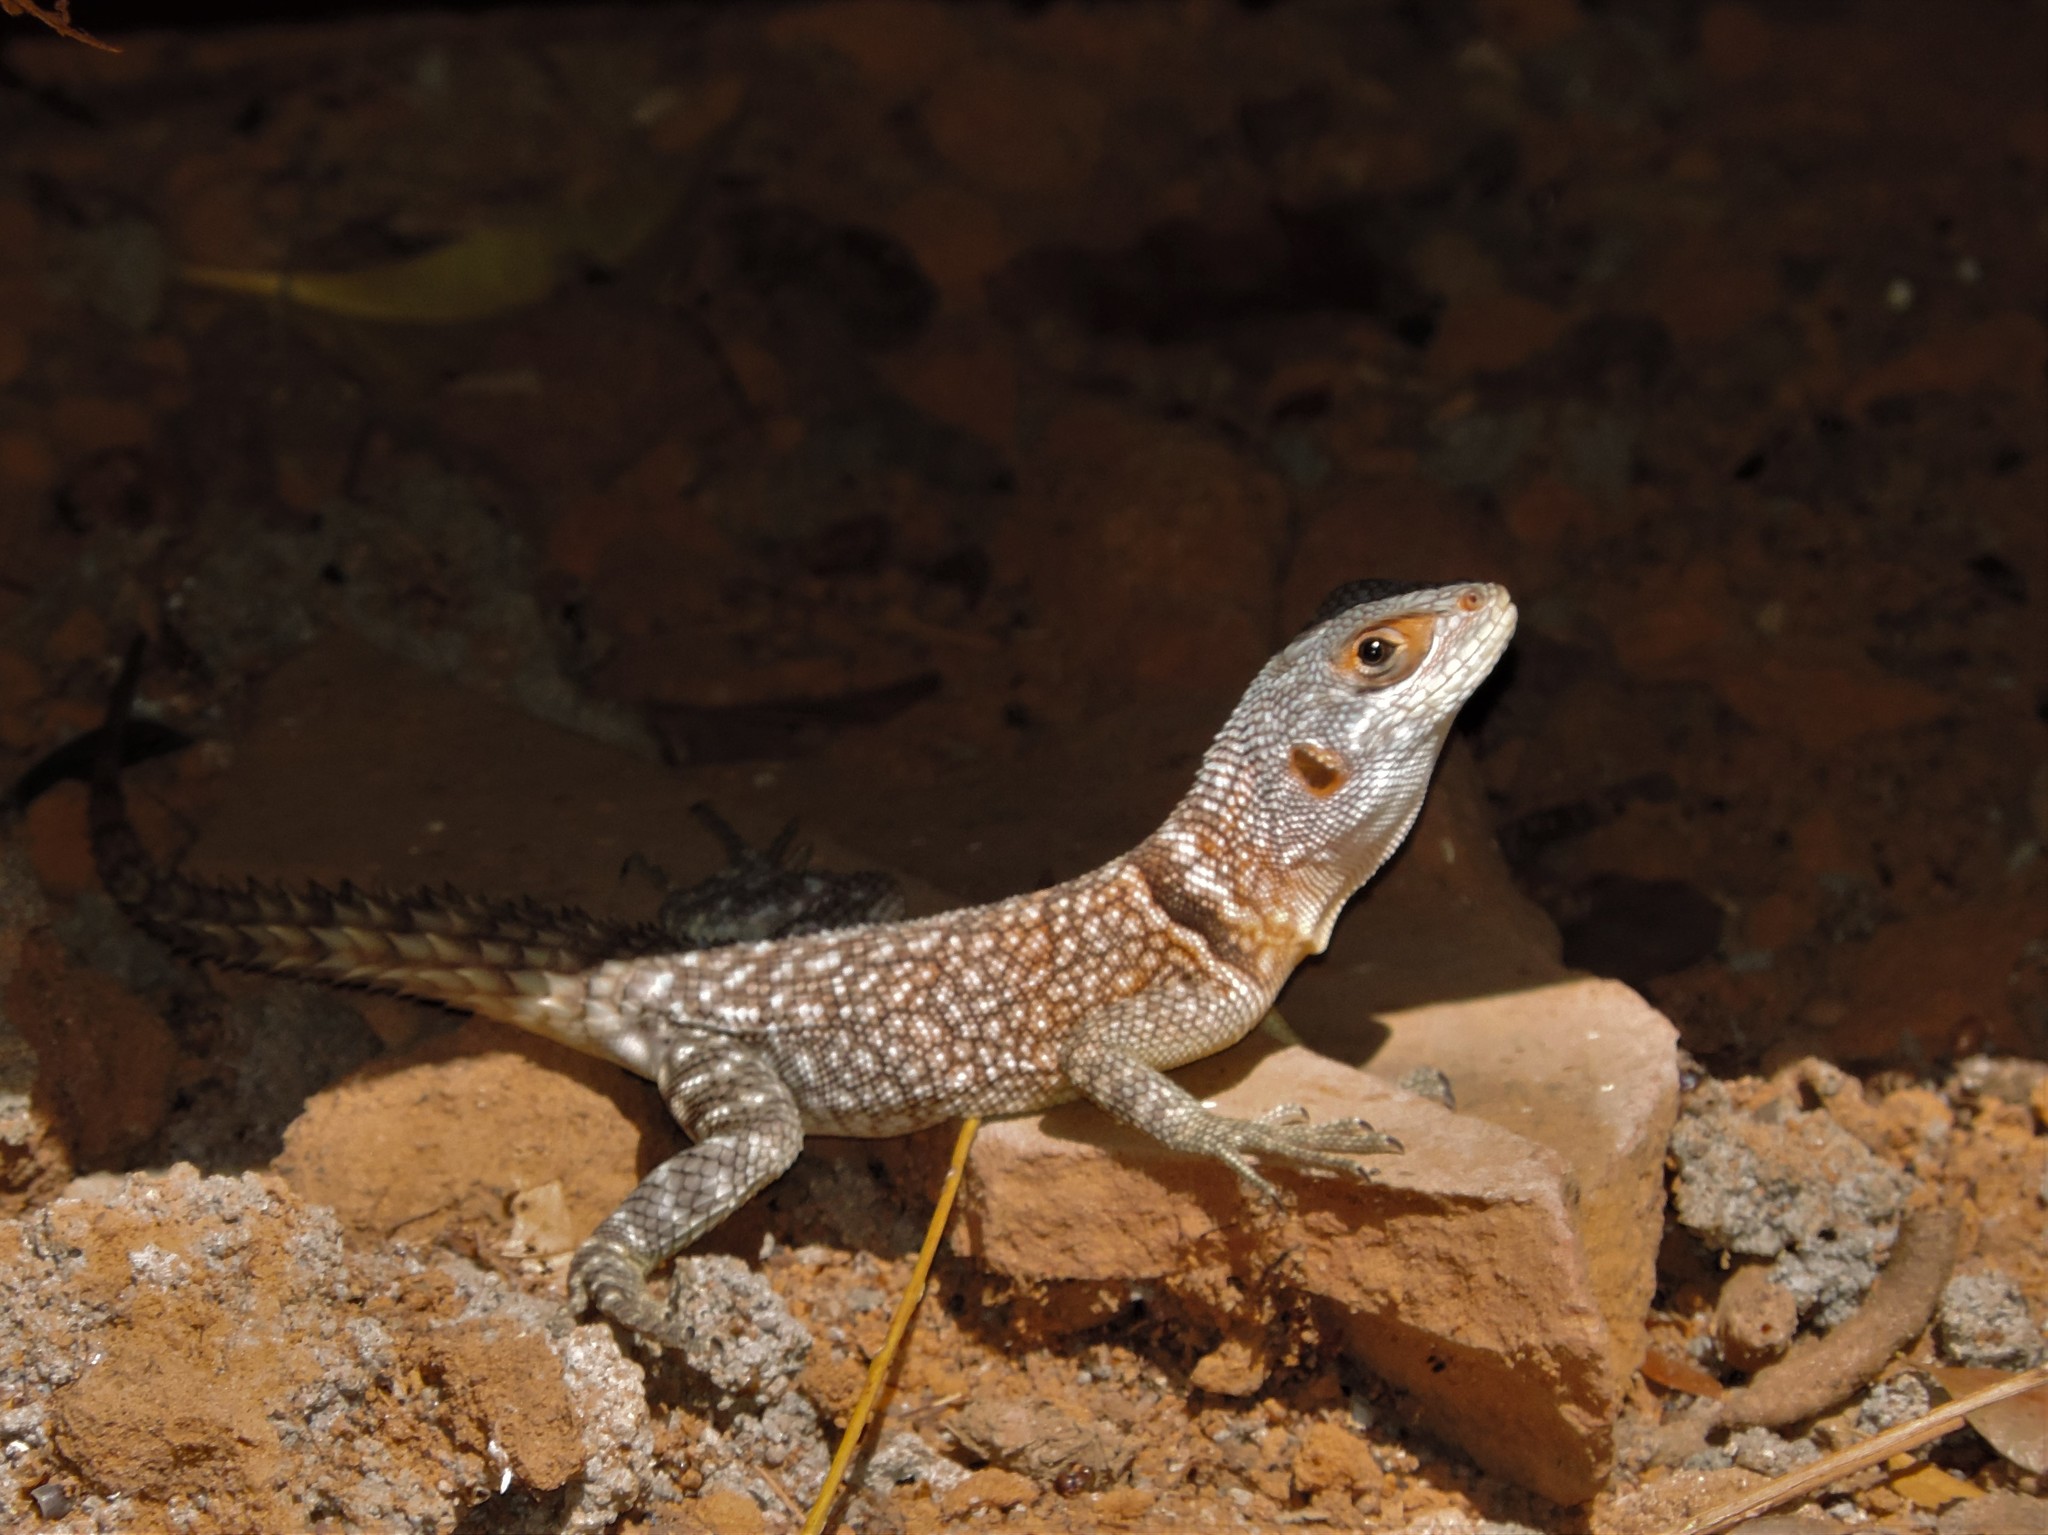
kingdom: Animalia
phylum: Chordata
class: Squamata
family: Opluridae
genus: Oplurus
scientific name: Oplurus cuvieri
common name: Cuvier's madagascar swift
